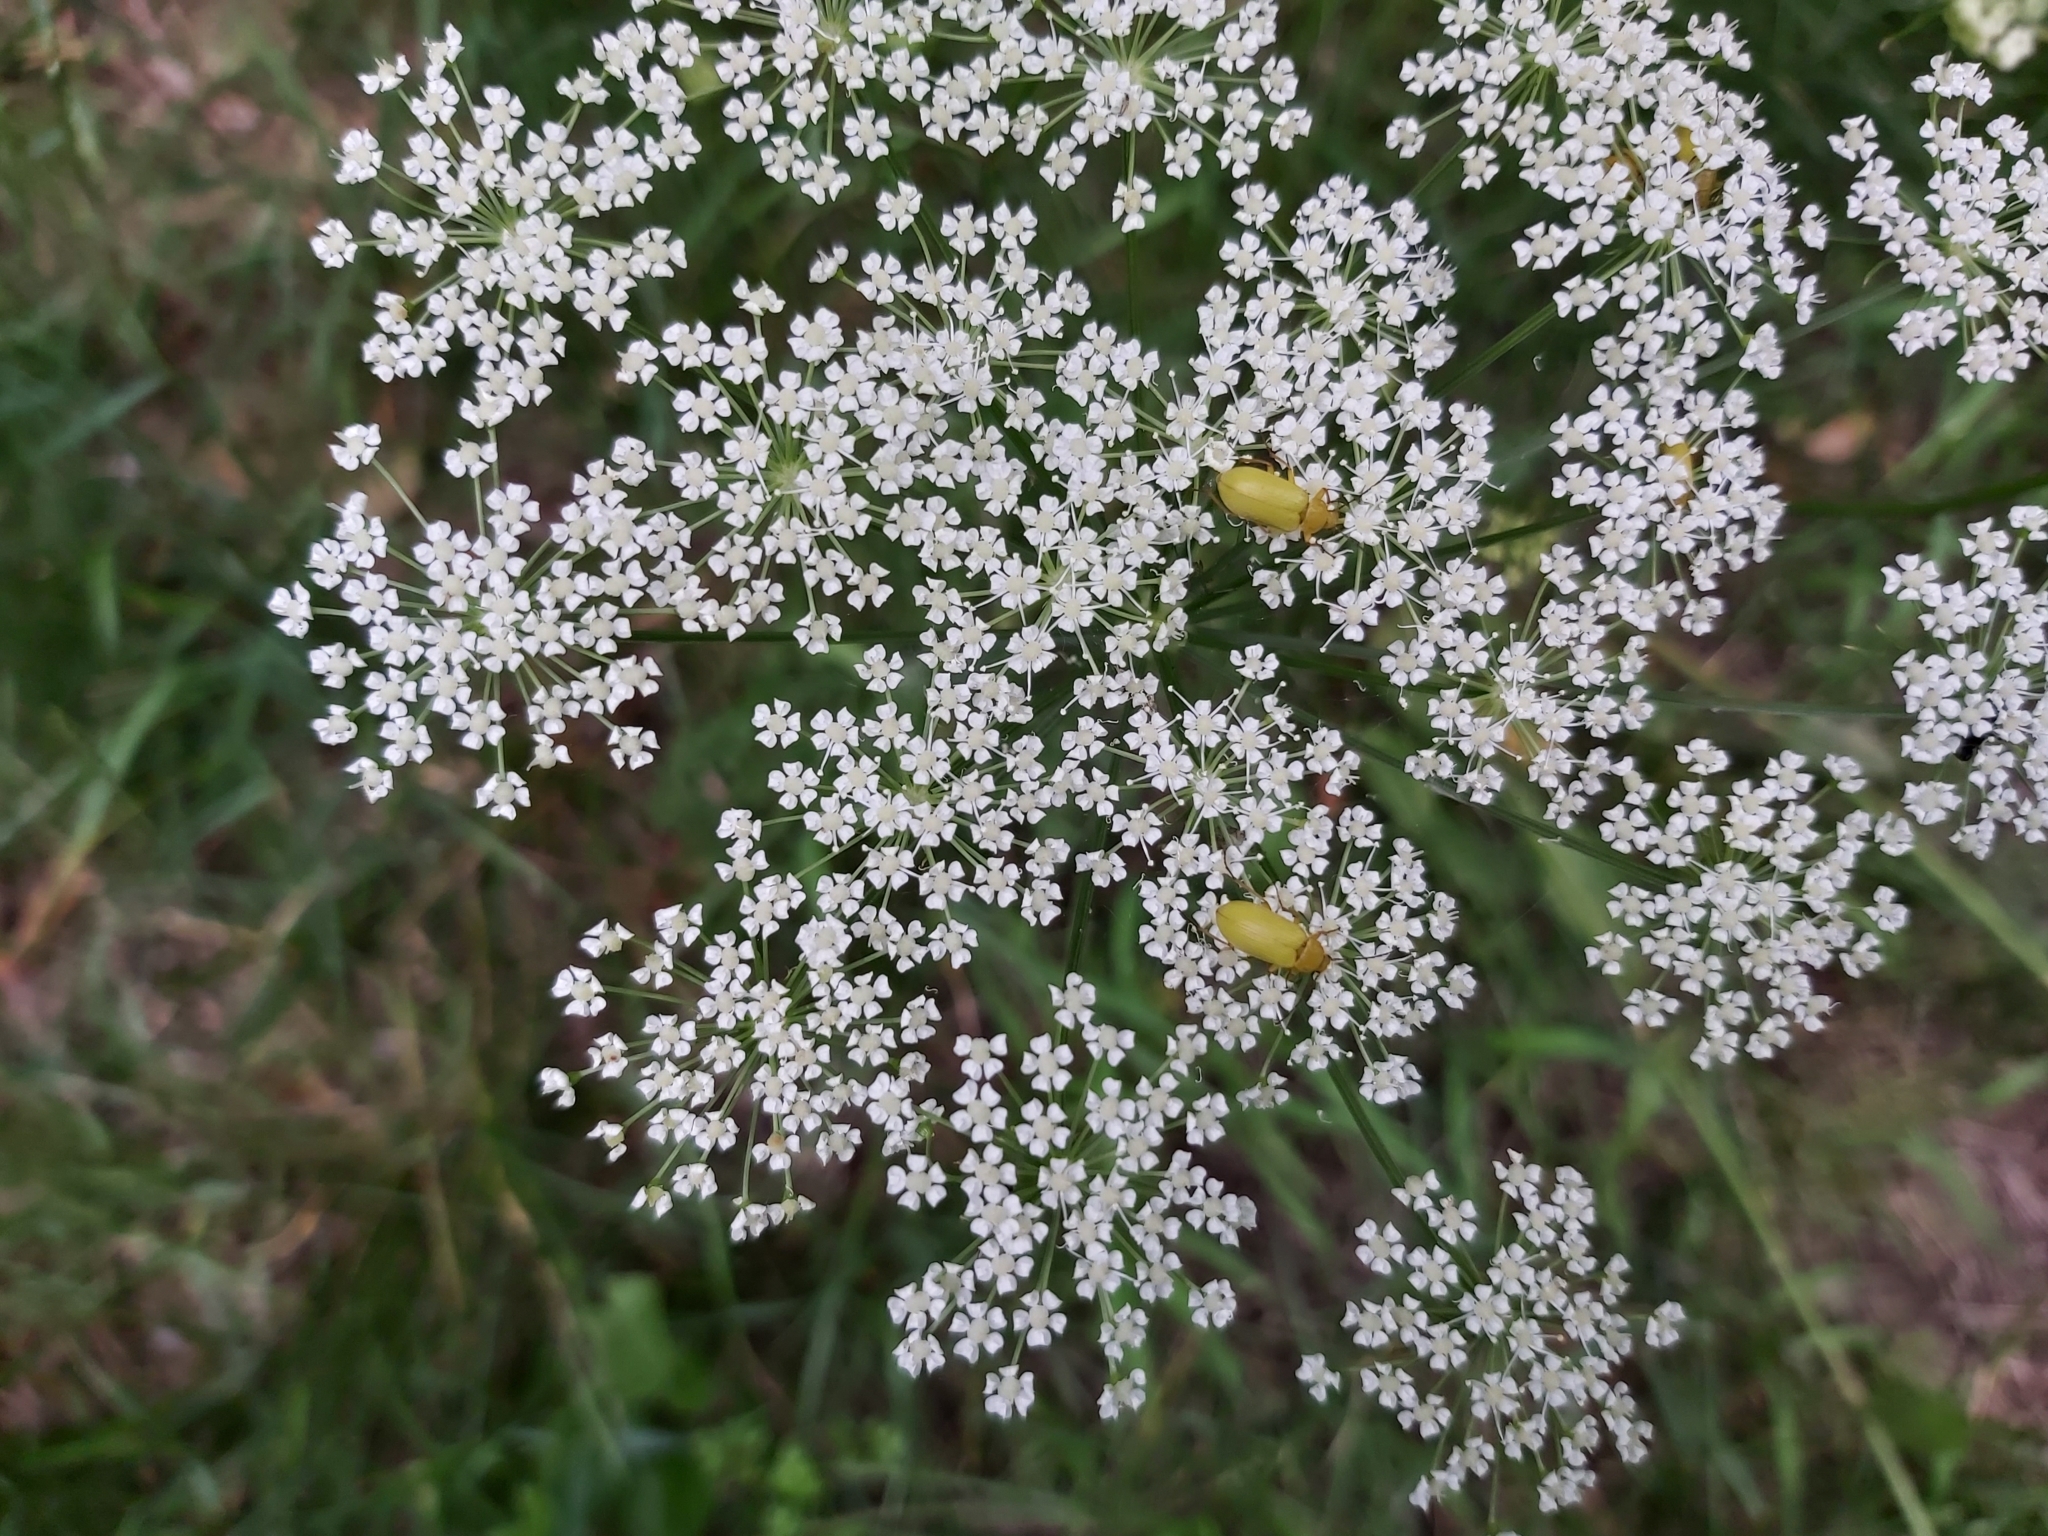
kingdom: Animalia
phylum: Arthropoda
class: Insecta
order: Coleoptera
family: Tenebrionidae
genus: Cteniopus
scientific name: Cteniopus sulphureus
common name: Sulphur beetle
